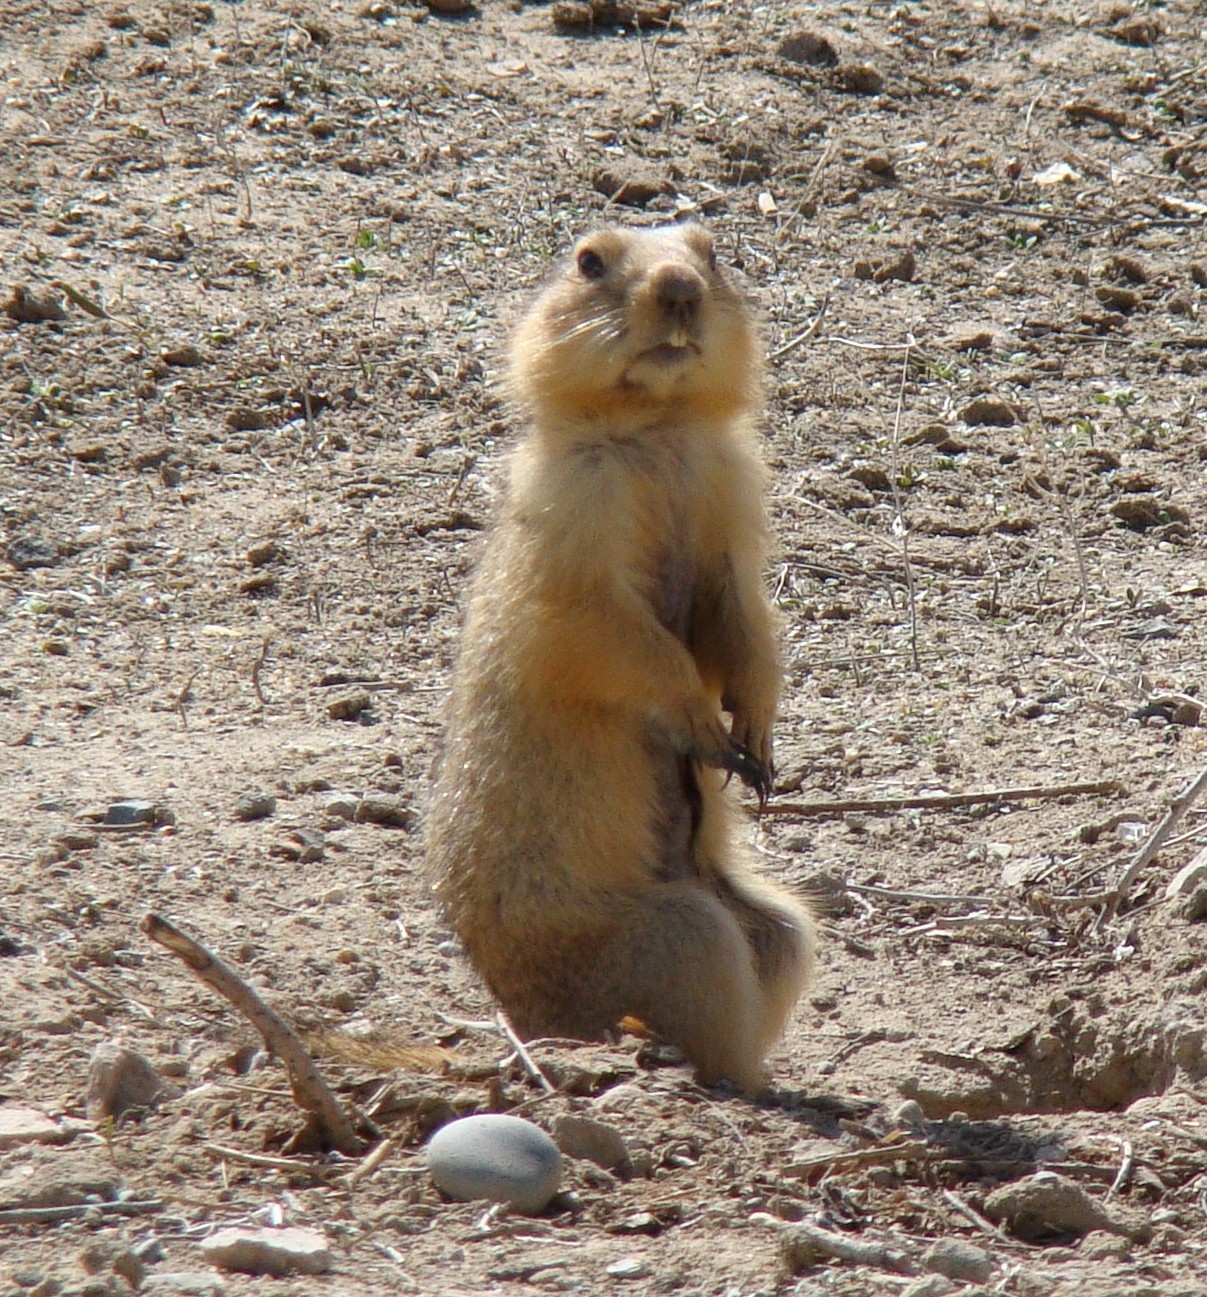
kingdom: Animalia
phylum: Chordata
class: Mammalia
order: Rodentia
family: Sciuridae
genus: Spermophilus
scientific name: Spermophilus fulvus
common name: Yellow ground squirrel
